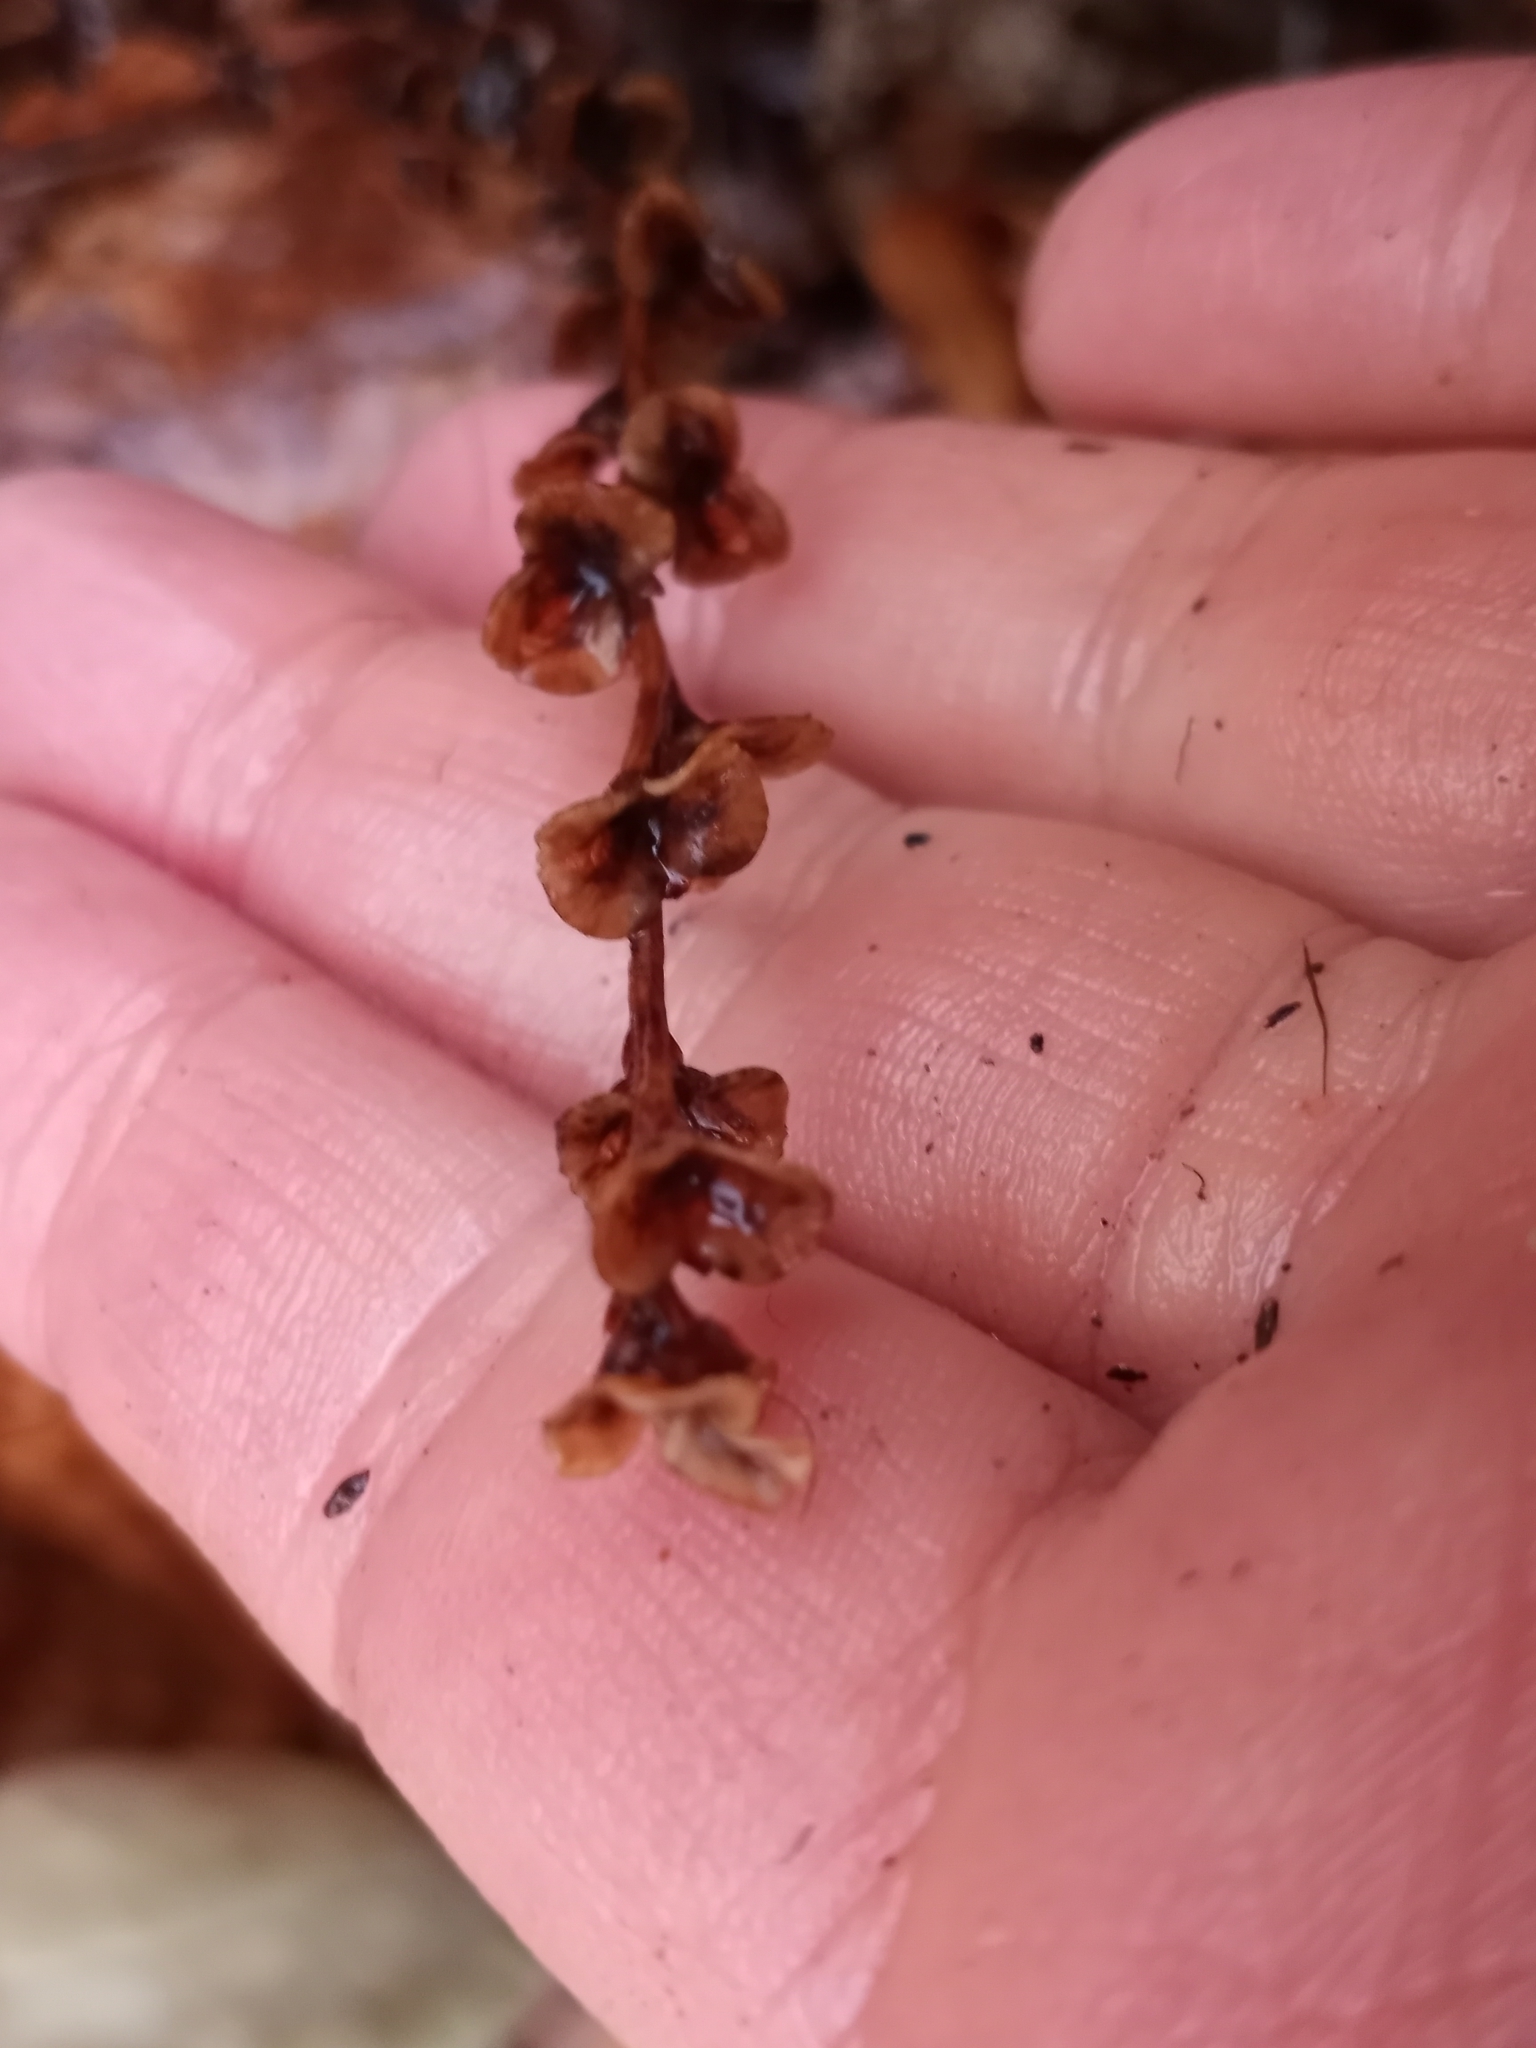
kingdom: Plantae
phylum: Tracheophyta
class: Magnoliopsida
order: Lamiales
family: Orobanchaceae
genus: Epifagus
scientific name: Epifagus virginiana
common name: Beechdrops
